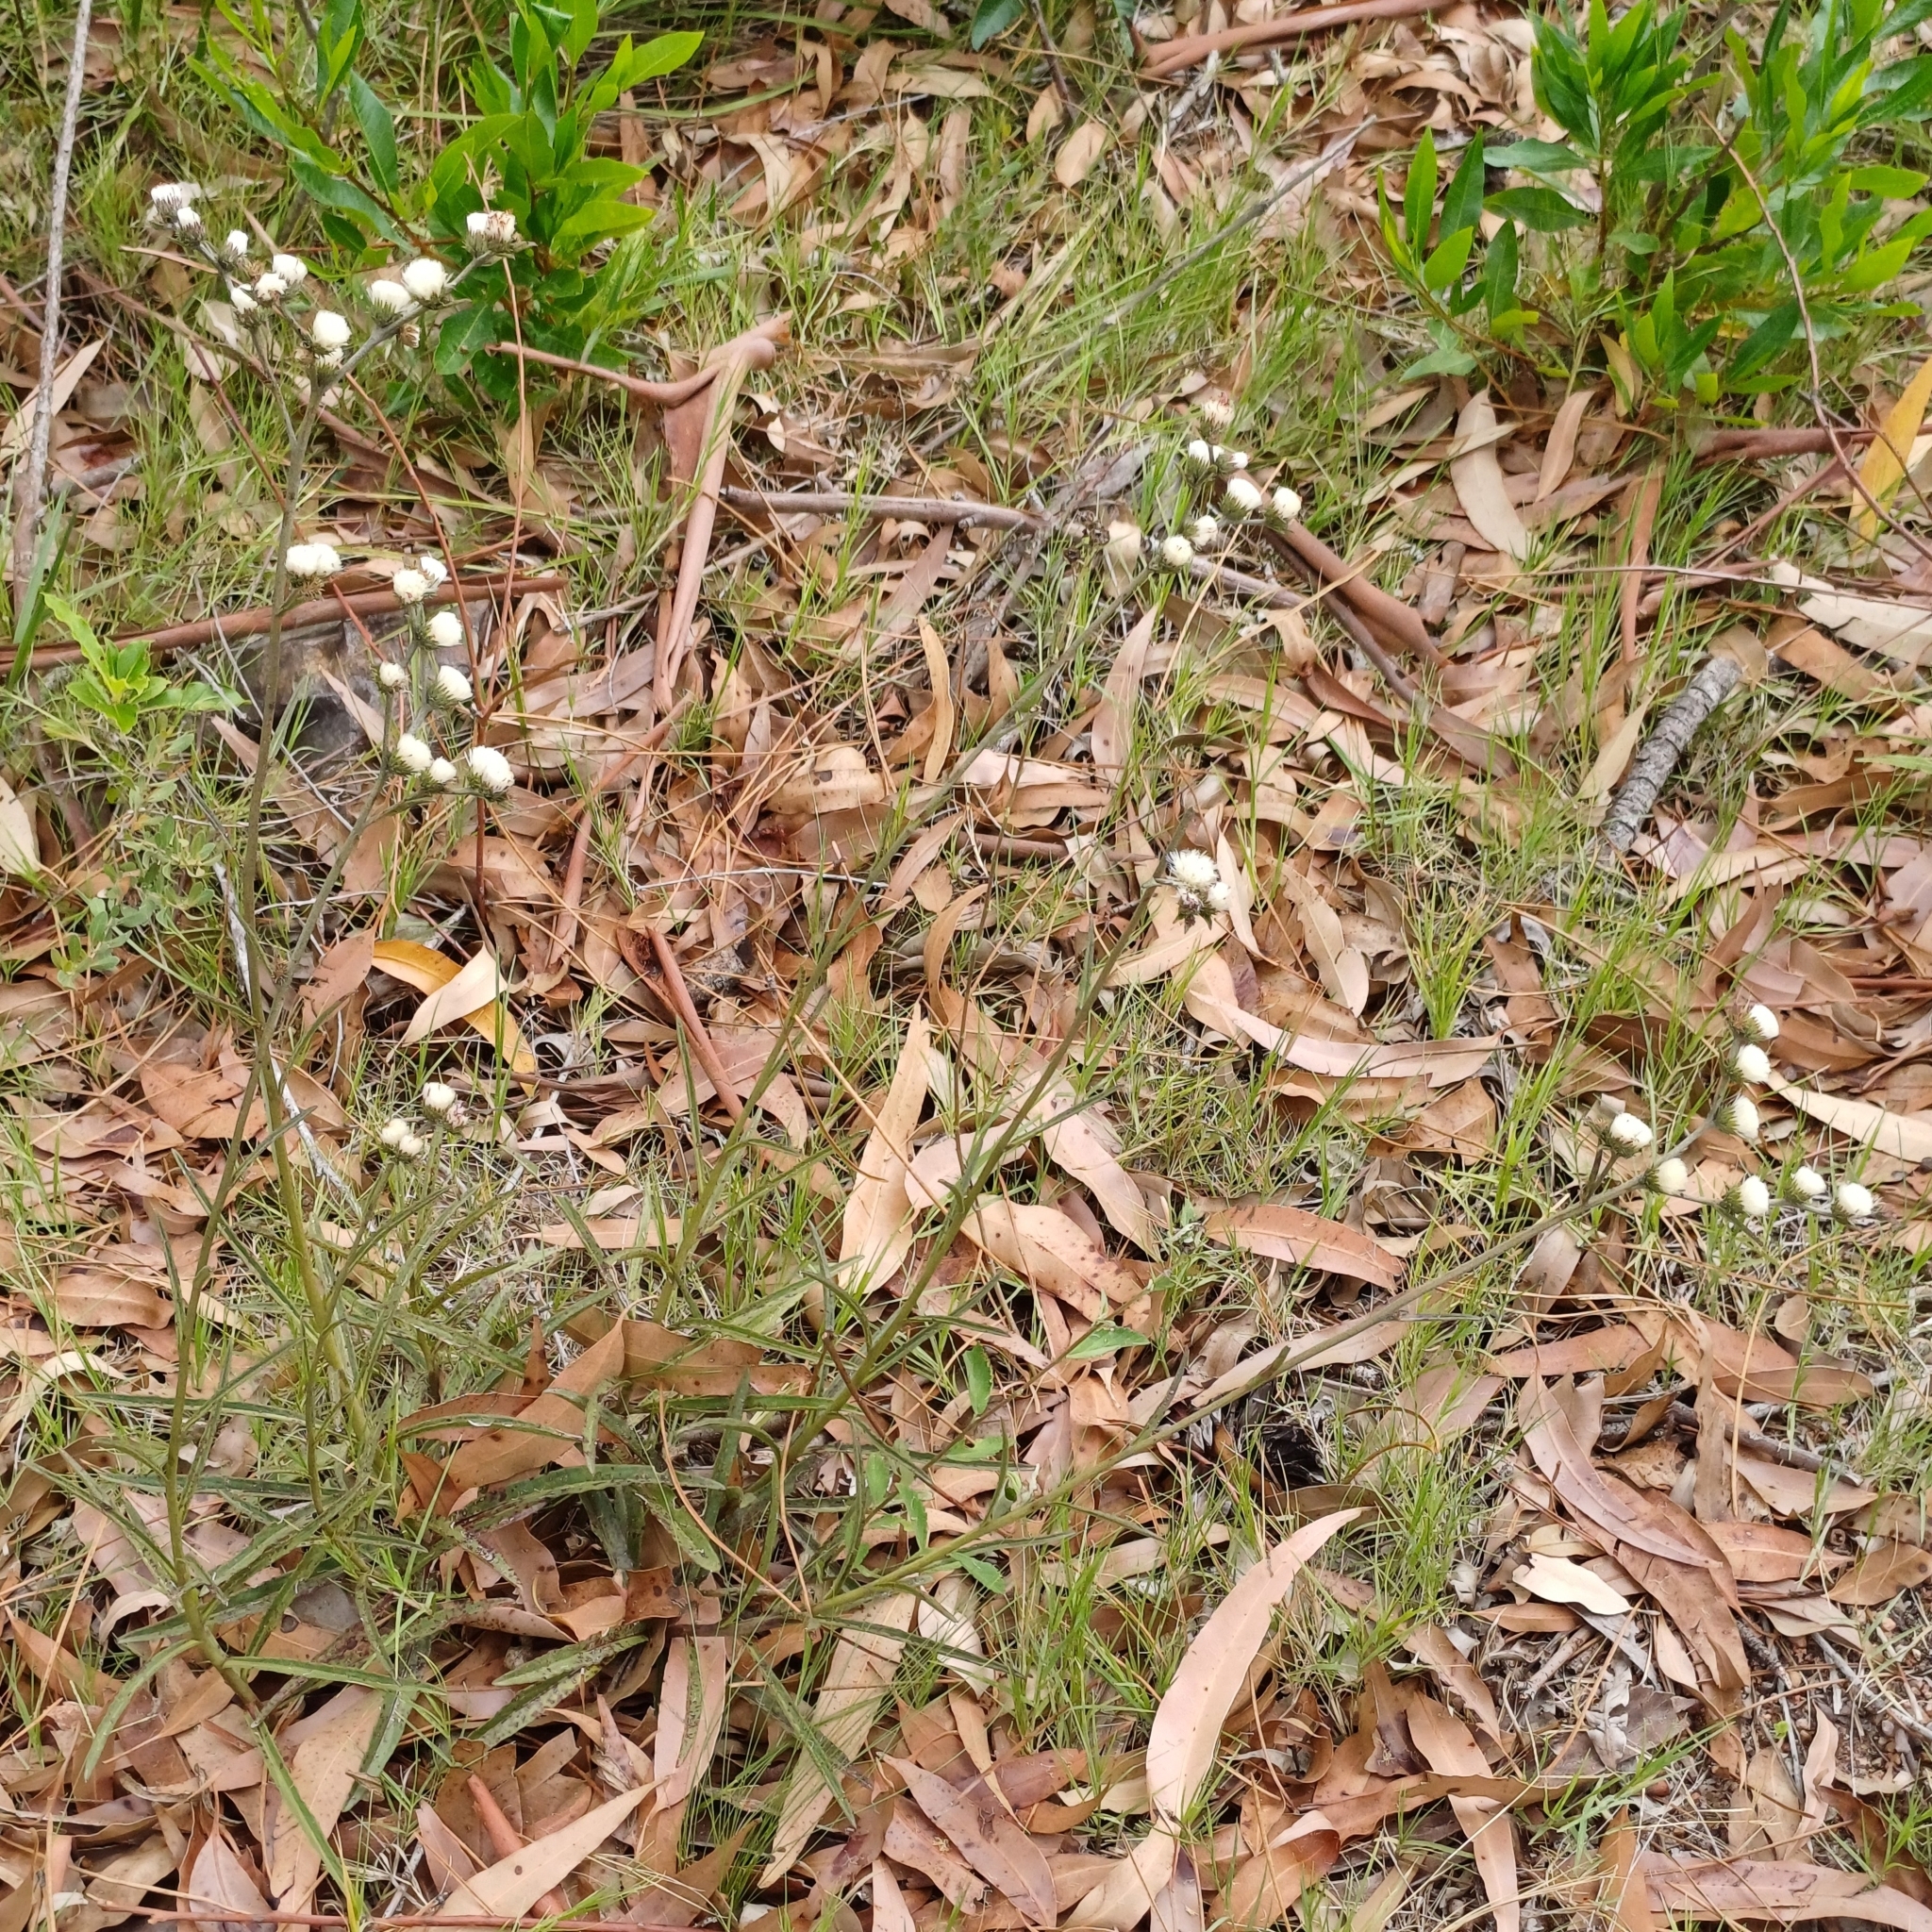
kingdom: Plantae
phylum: Tracheophyta
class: Magnoliopsida
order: Asterales
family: Asteraceae
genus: Chrysolaena
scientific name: Chrysolaena flexuosa
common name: Zig-zag vernonia
